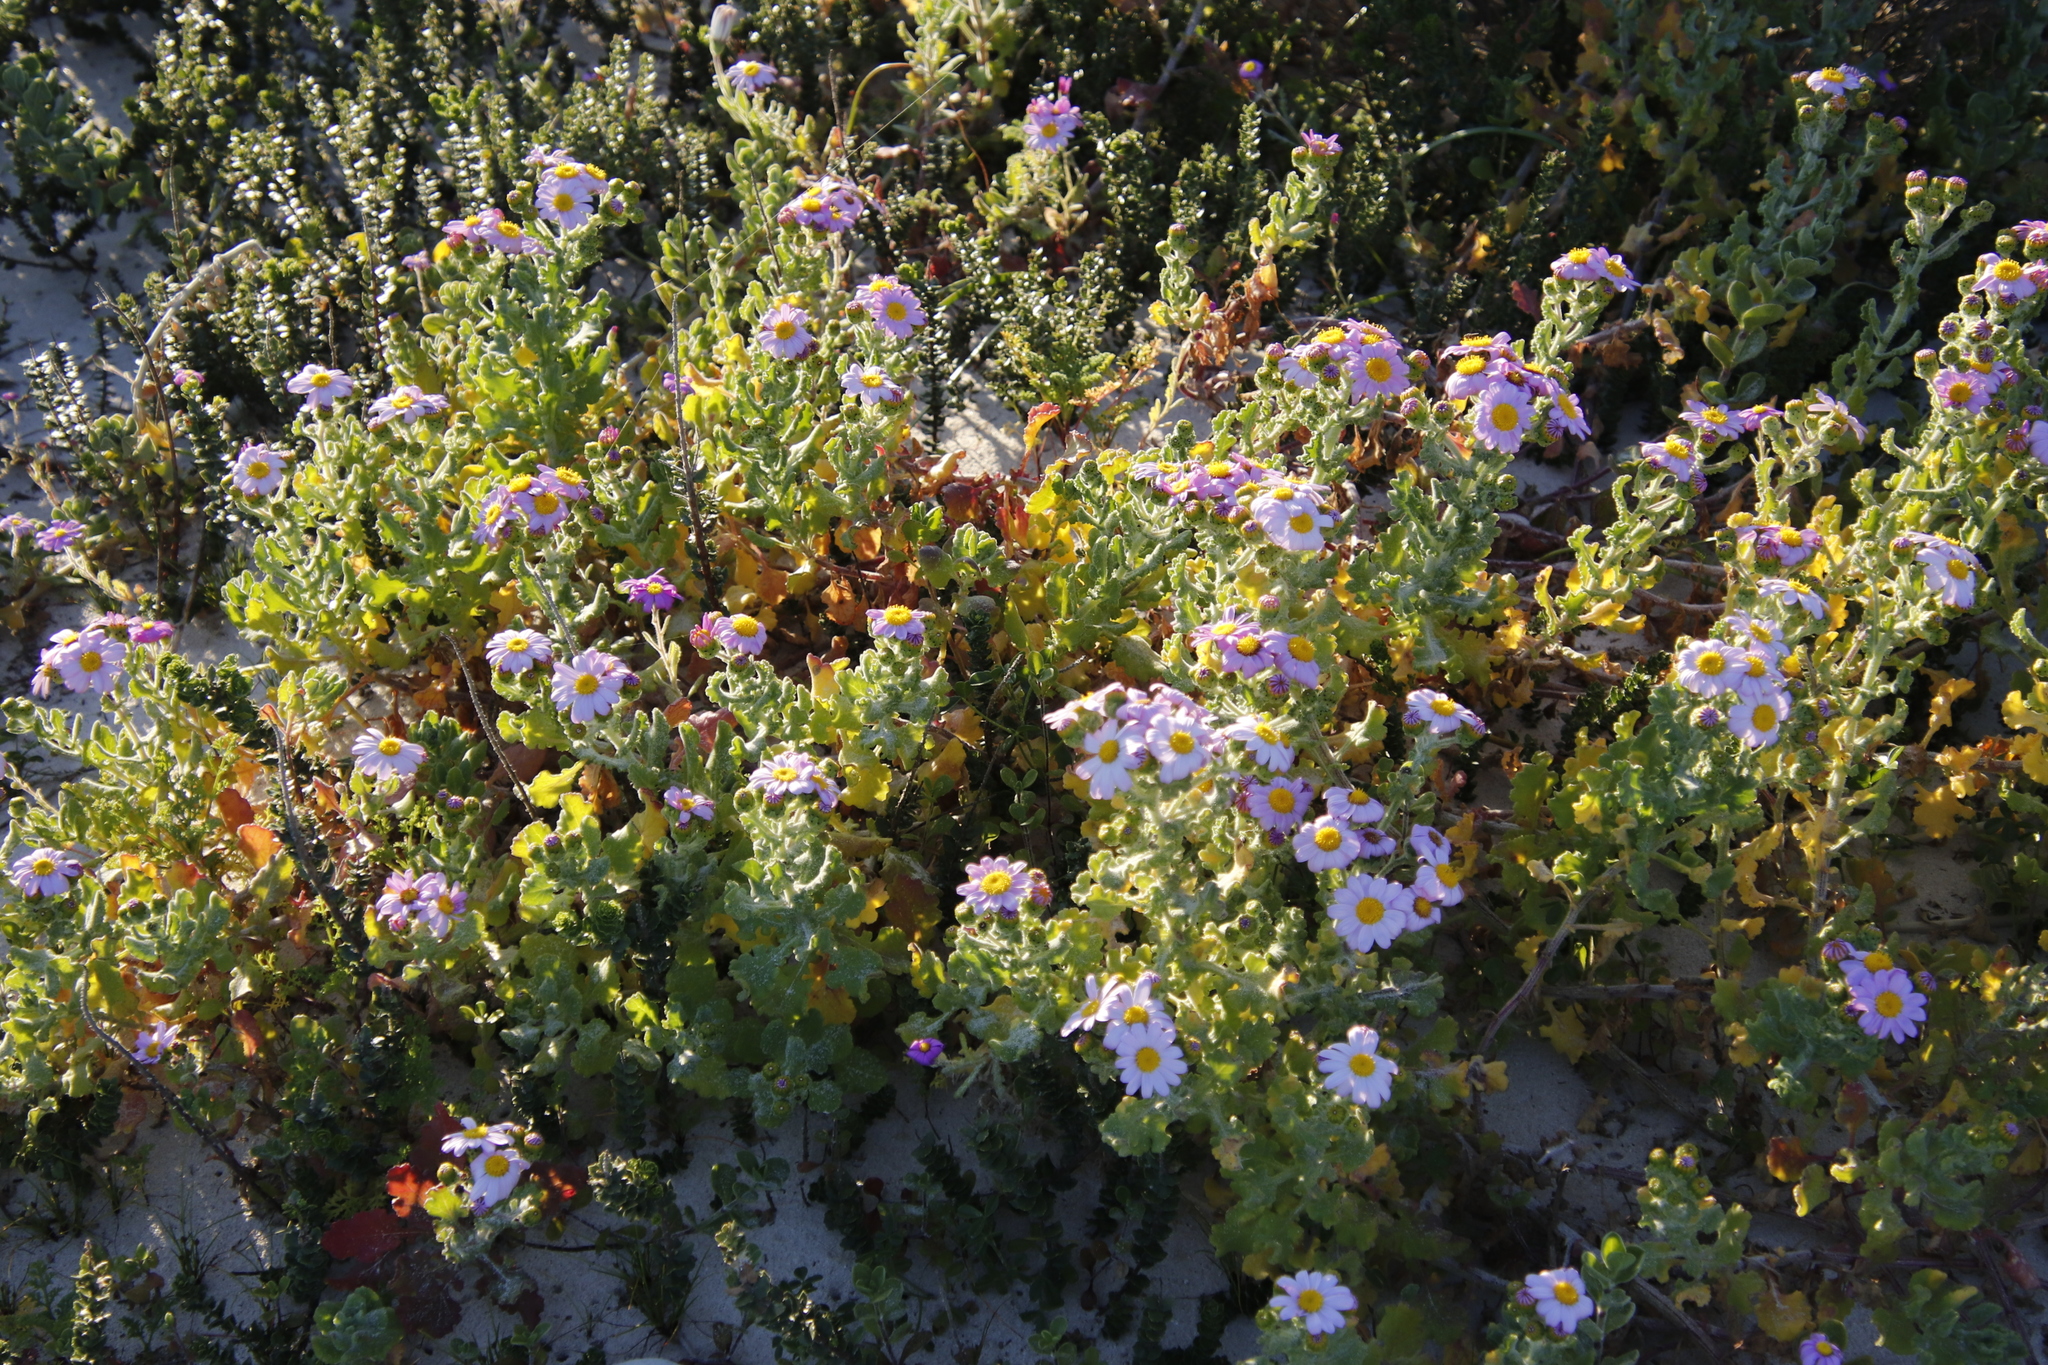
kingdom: Plantae
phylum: Tracheophyta
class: Magnoliopsida
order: Asterales
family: Asteraceae
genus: Senecio
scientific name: Senecio elegans
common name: Purple groundsel
